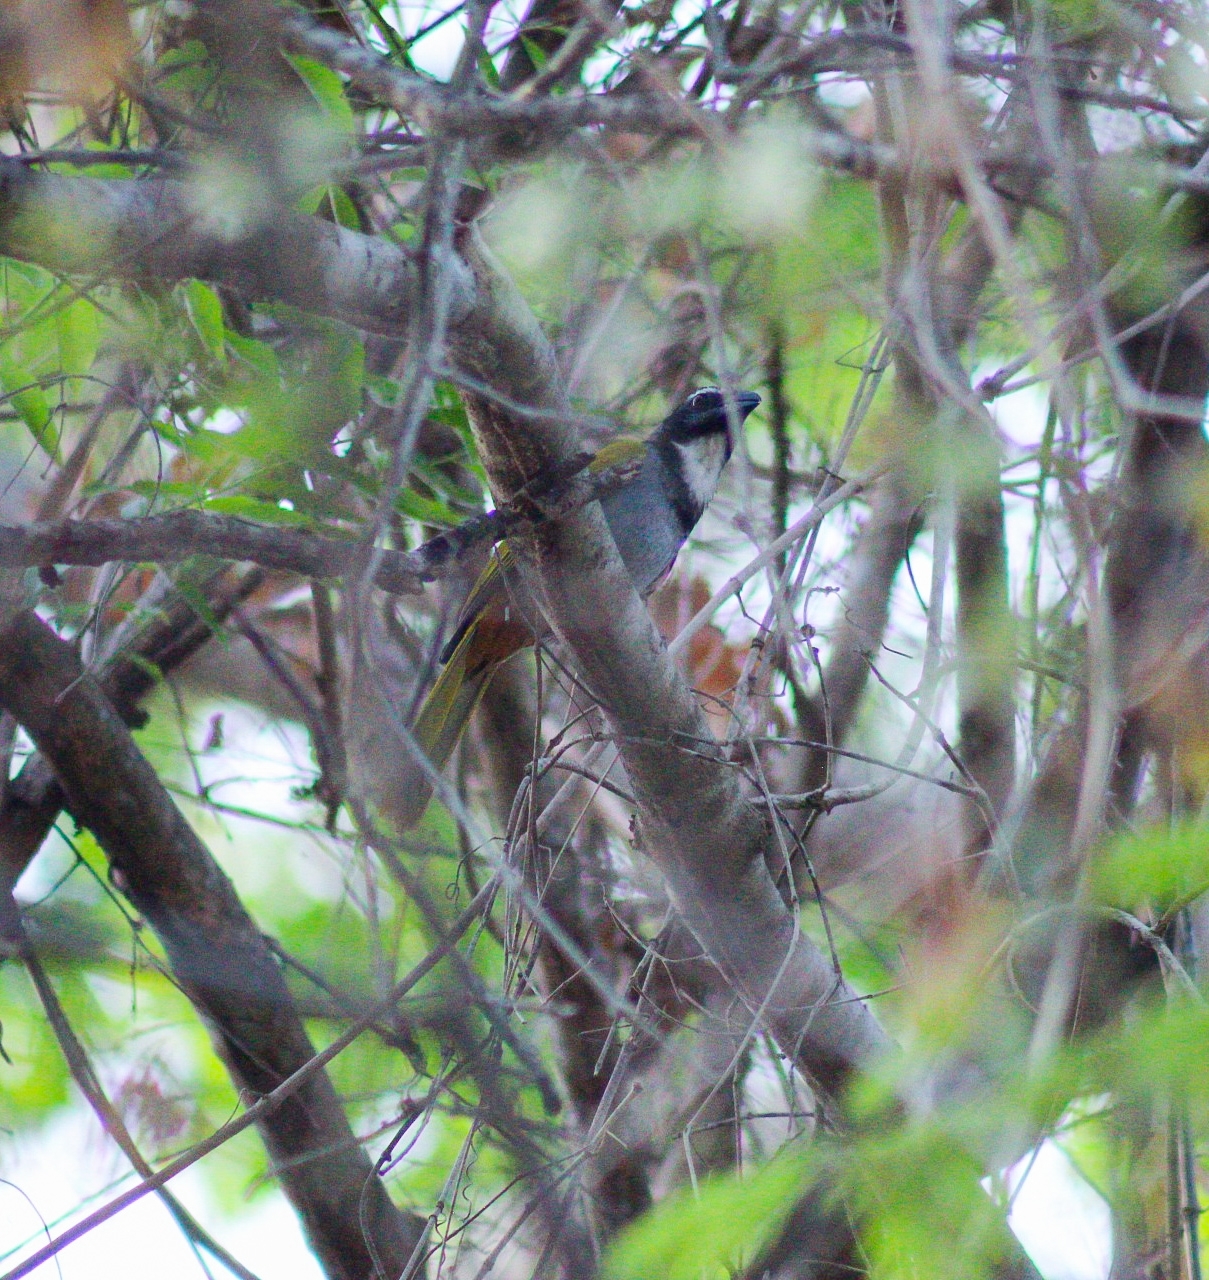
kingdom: Animalia
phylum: Chordata
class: Aves
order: Passeriformes
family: Thraupidae
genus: Saltator
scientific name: Saltator atriceps
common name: Black-headed saltator
